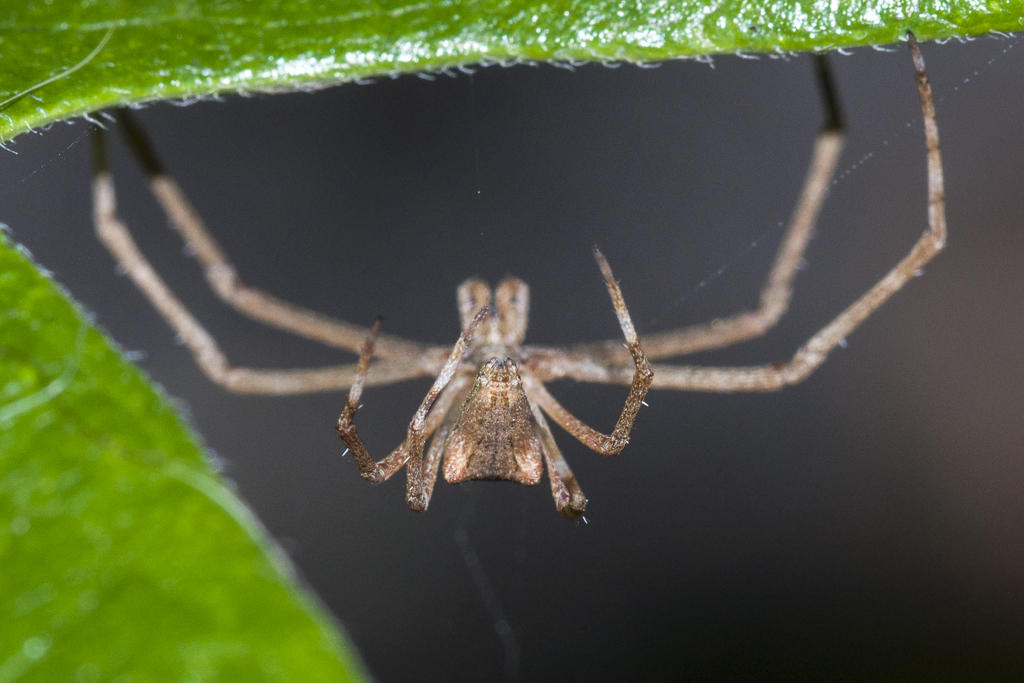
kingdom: Animalia
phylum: Arthropoda
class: Arachnida
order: Araneae
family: Deinopidae
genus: Menneus
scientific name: Menneus capensis
